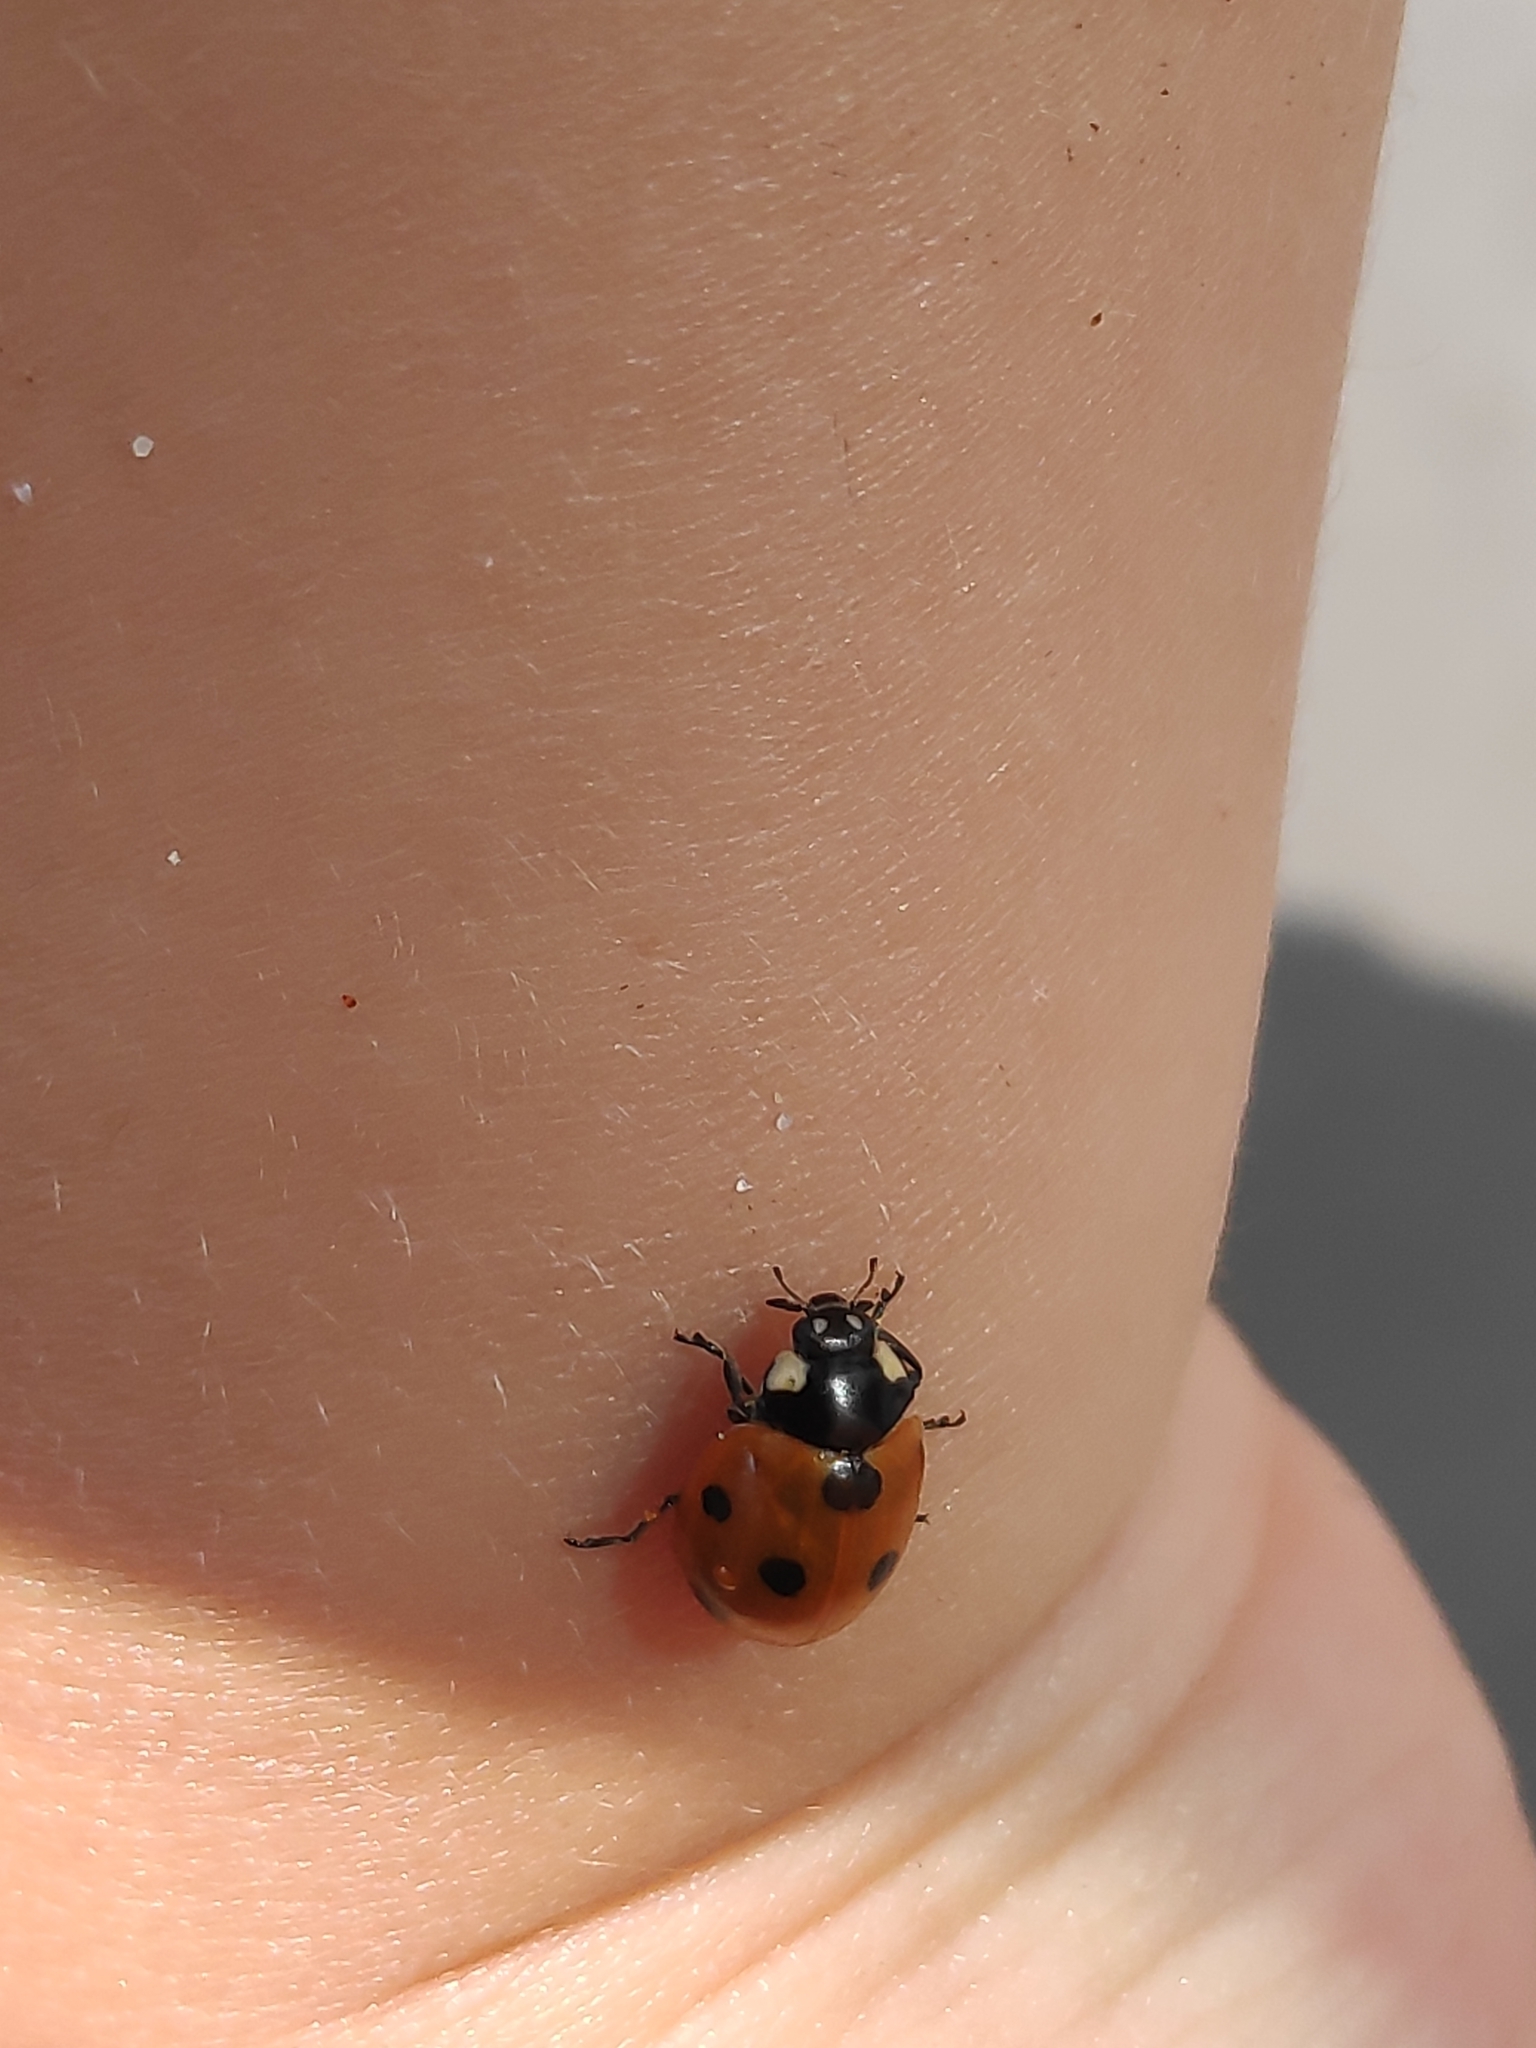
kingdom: Animalia
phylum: Arthropoda
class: Insecta
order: Coleoptera
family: Coccinellidae
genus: Coccinella
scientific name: Coccinella septempunctata
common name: Sevenspotted lady beetle
